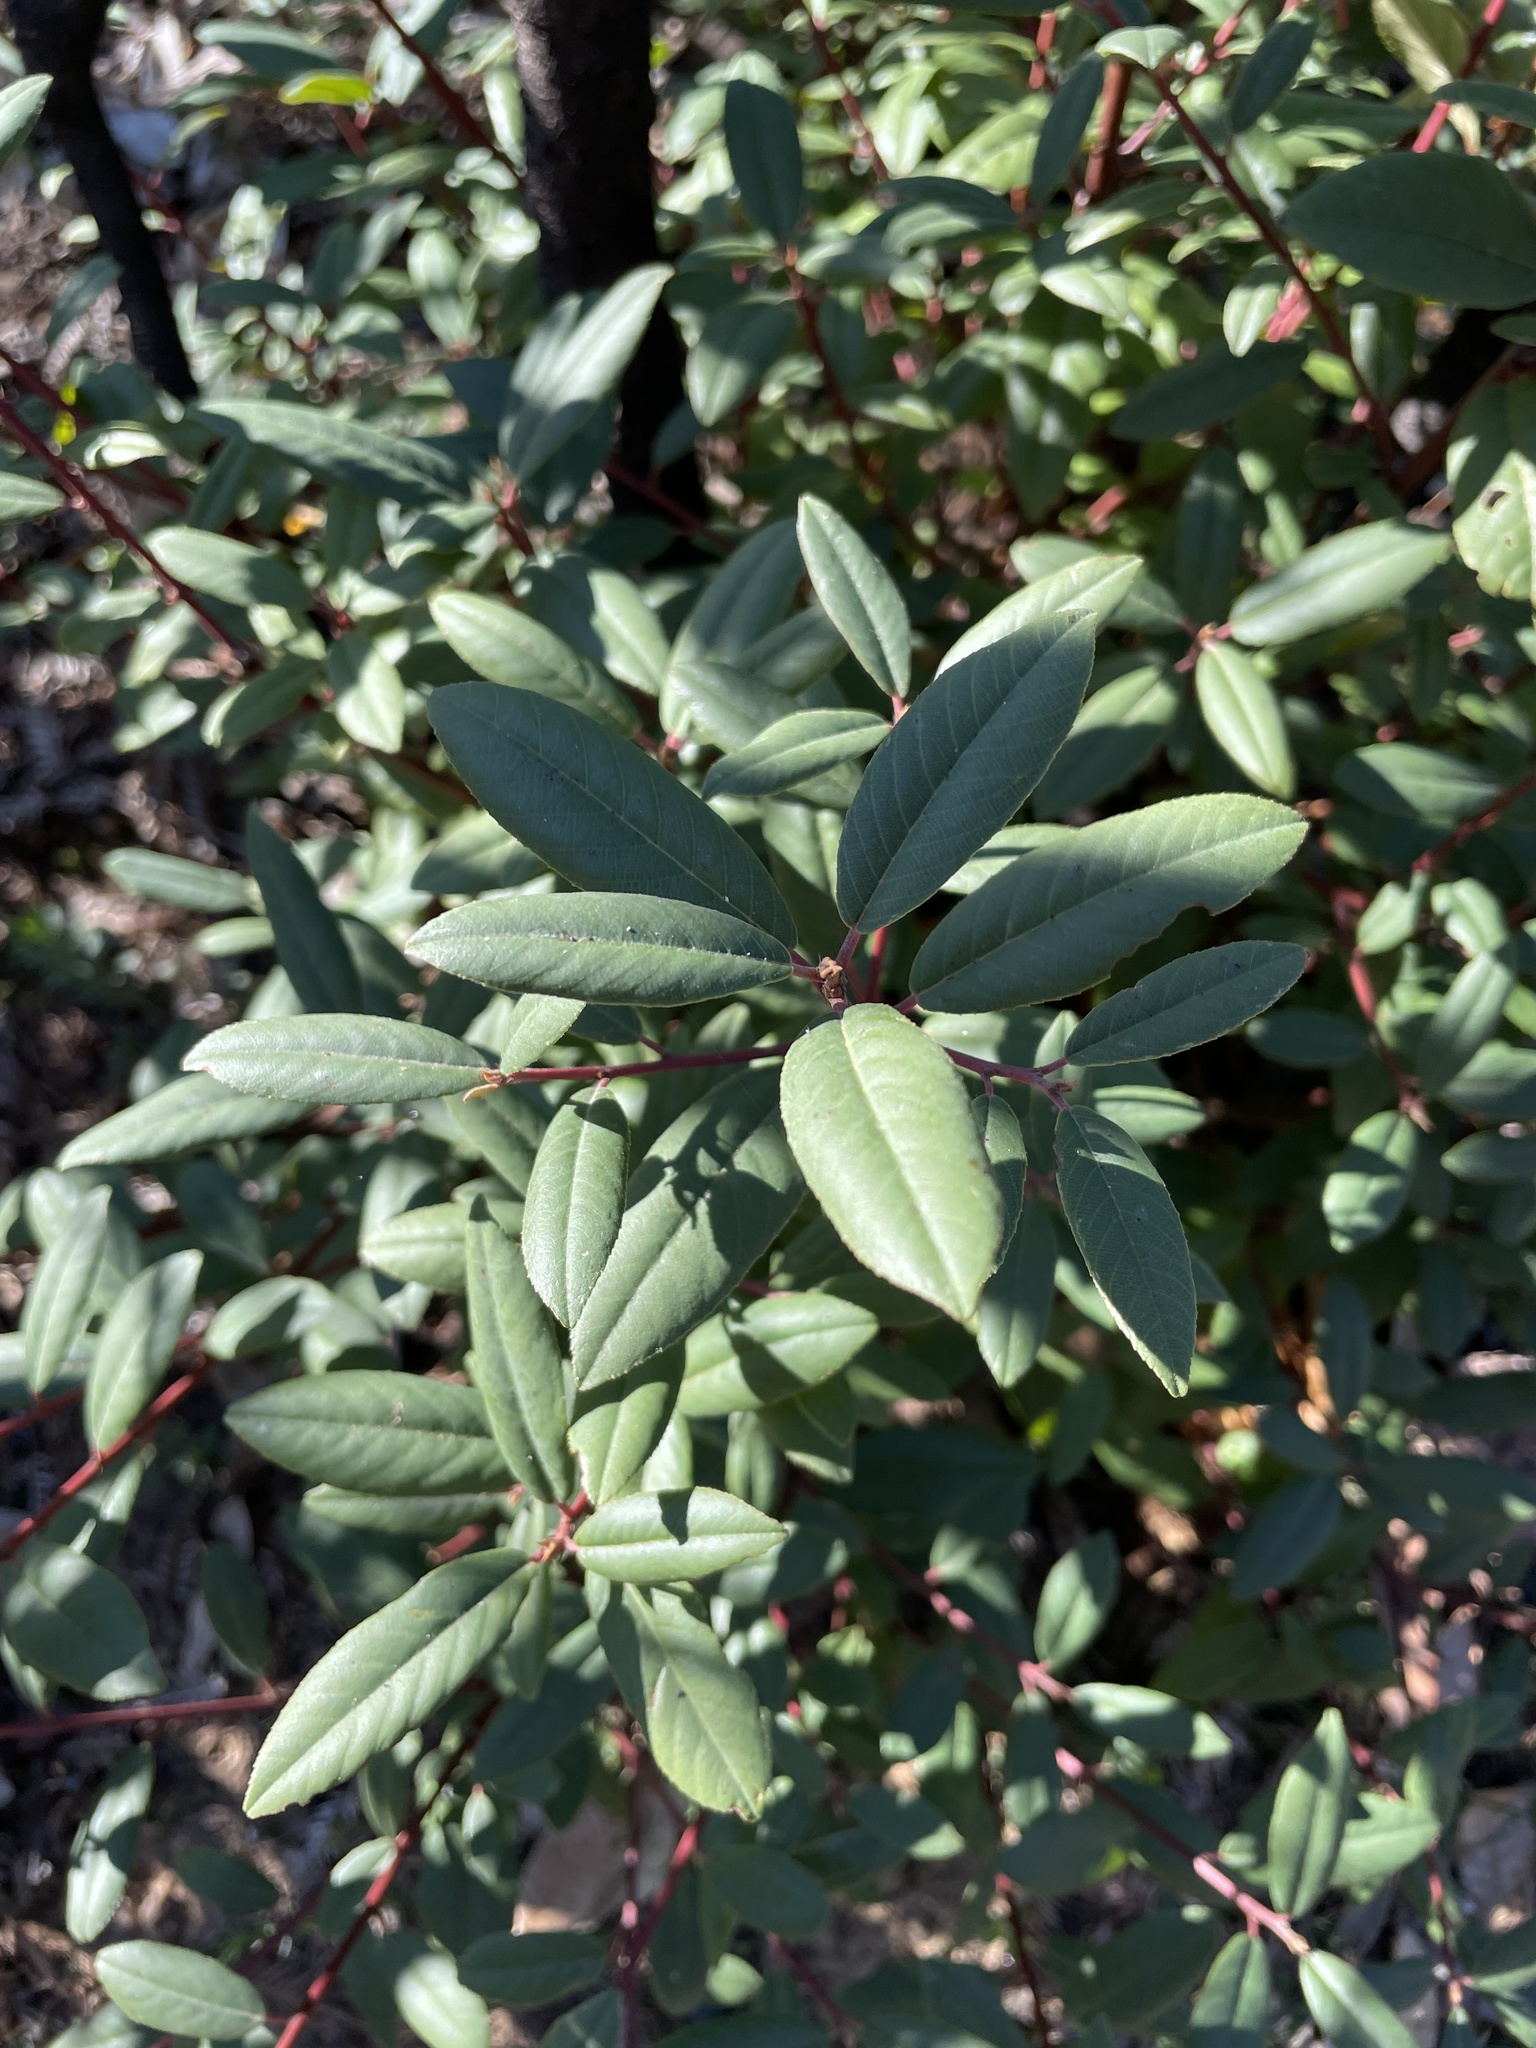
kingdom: Plantae
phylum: Tracheophyta
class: Magnoliopsida
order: Rosales
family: Rhamnaceae
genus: Frangula
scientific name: Frangula californica
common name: California buckthorn
